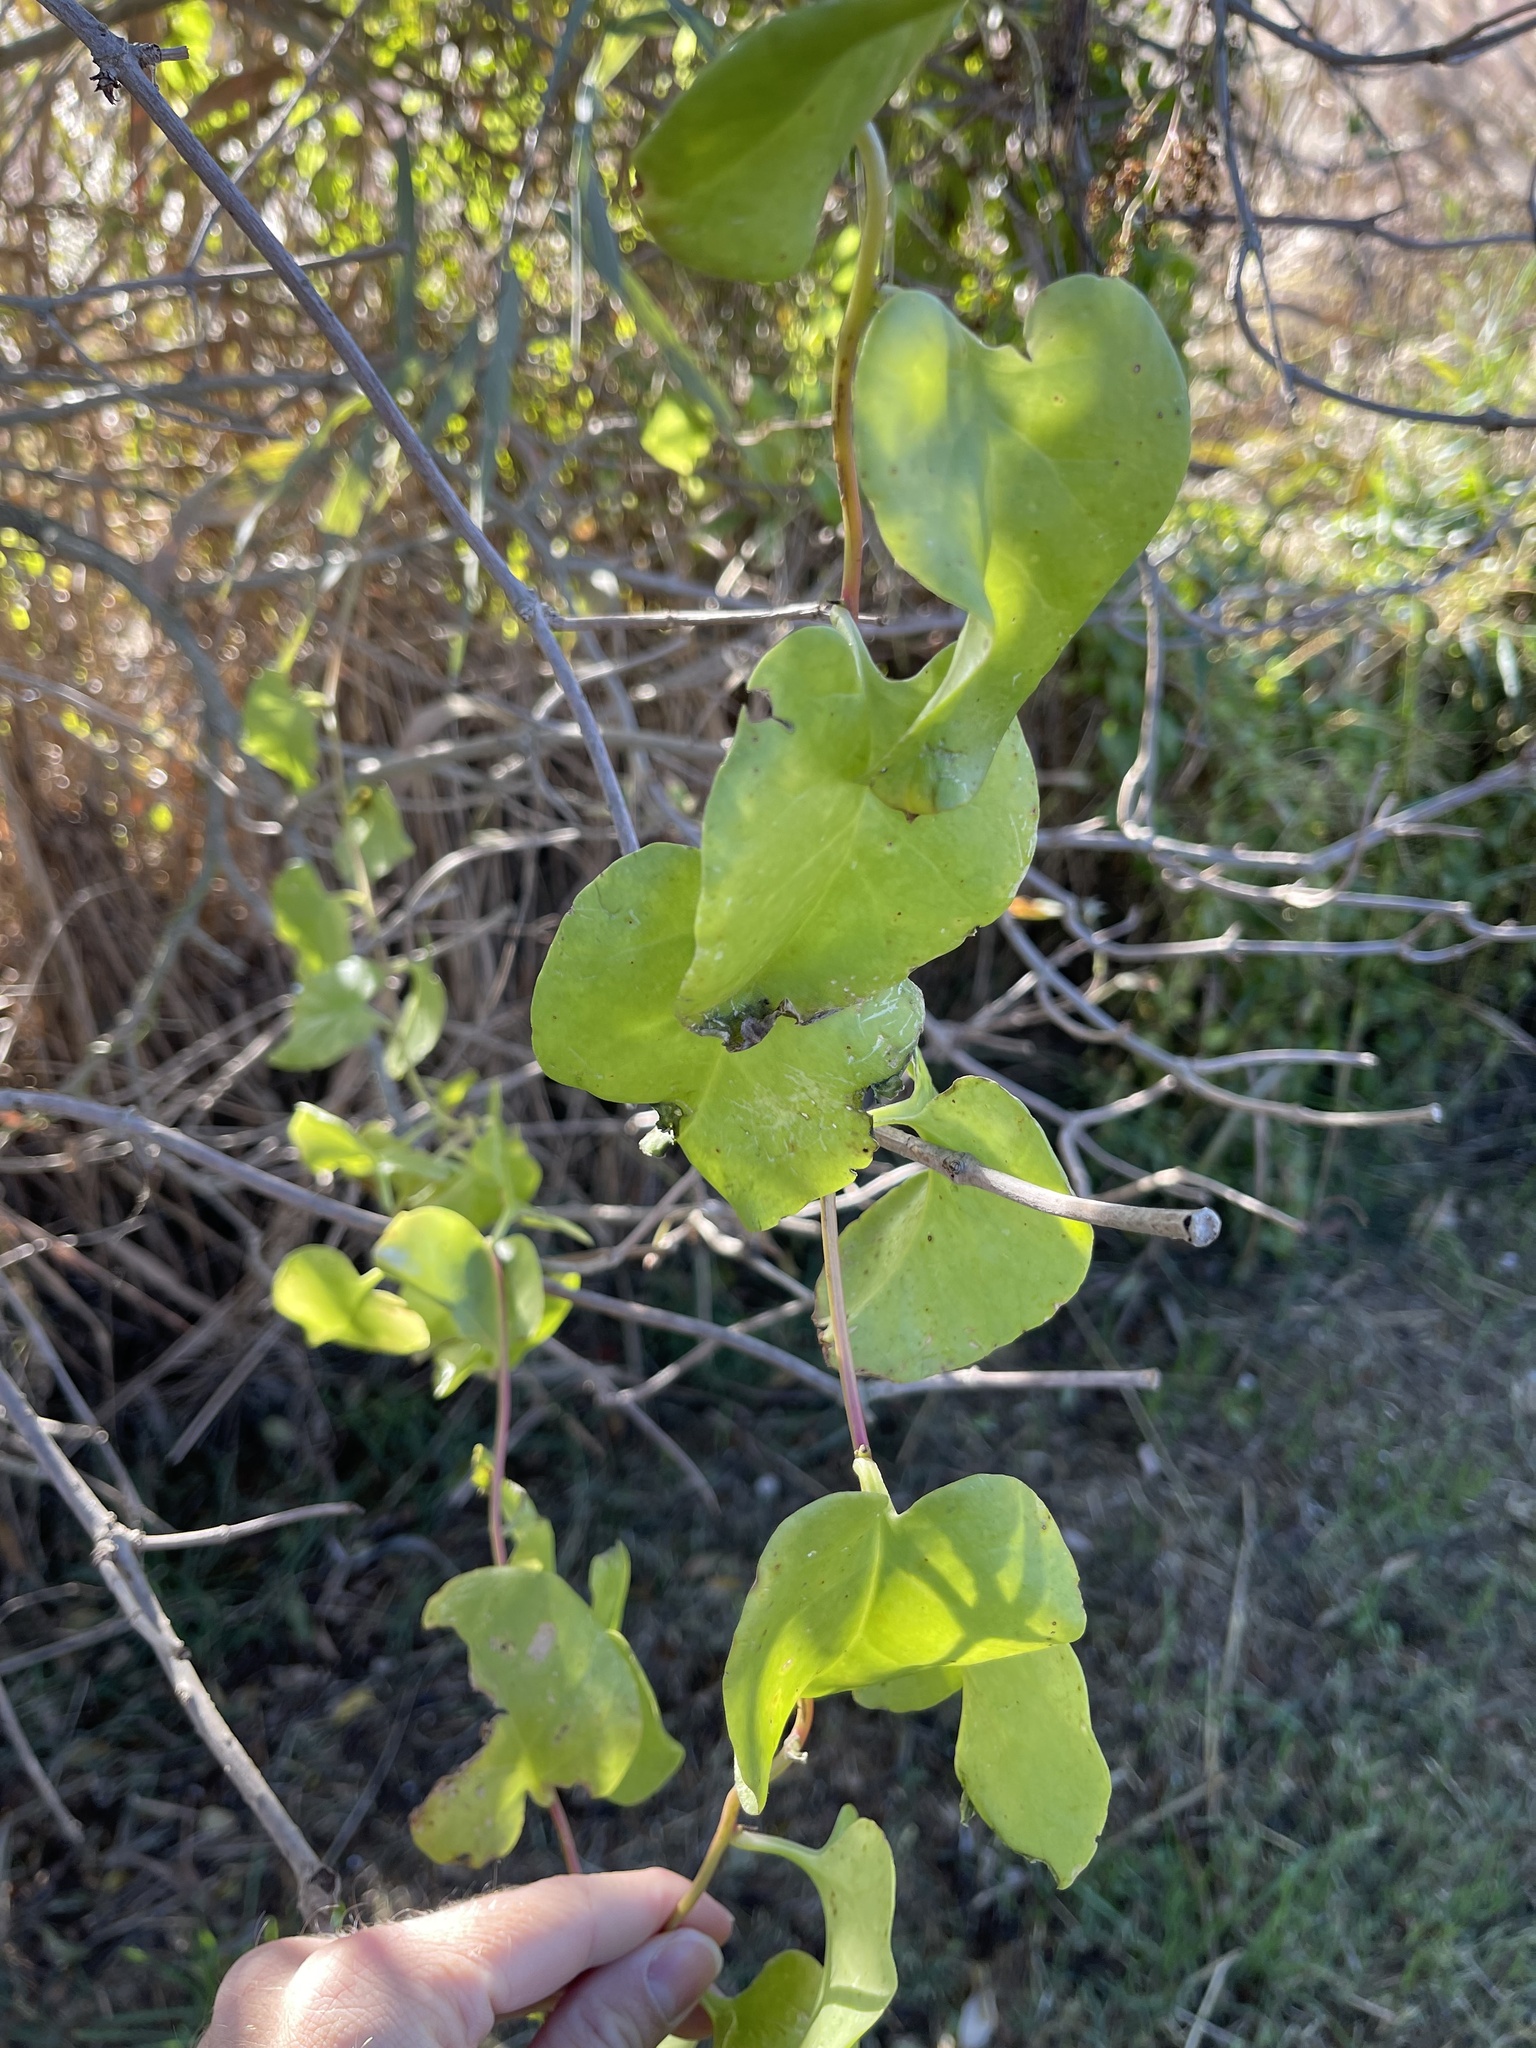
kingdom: Plantae
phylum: Tracheophyta
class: Magnoliopsida
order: Caryophyllales
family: Basellaceae
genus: Anredera
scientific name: Anredera cordifolia
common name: Heartleaf madeiravine
